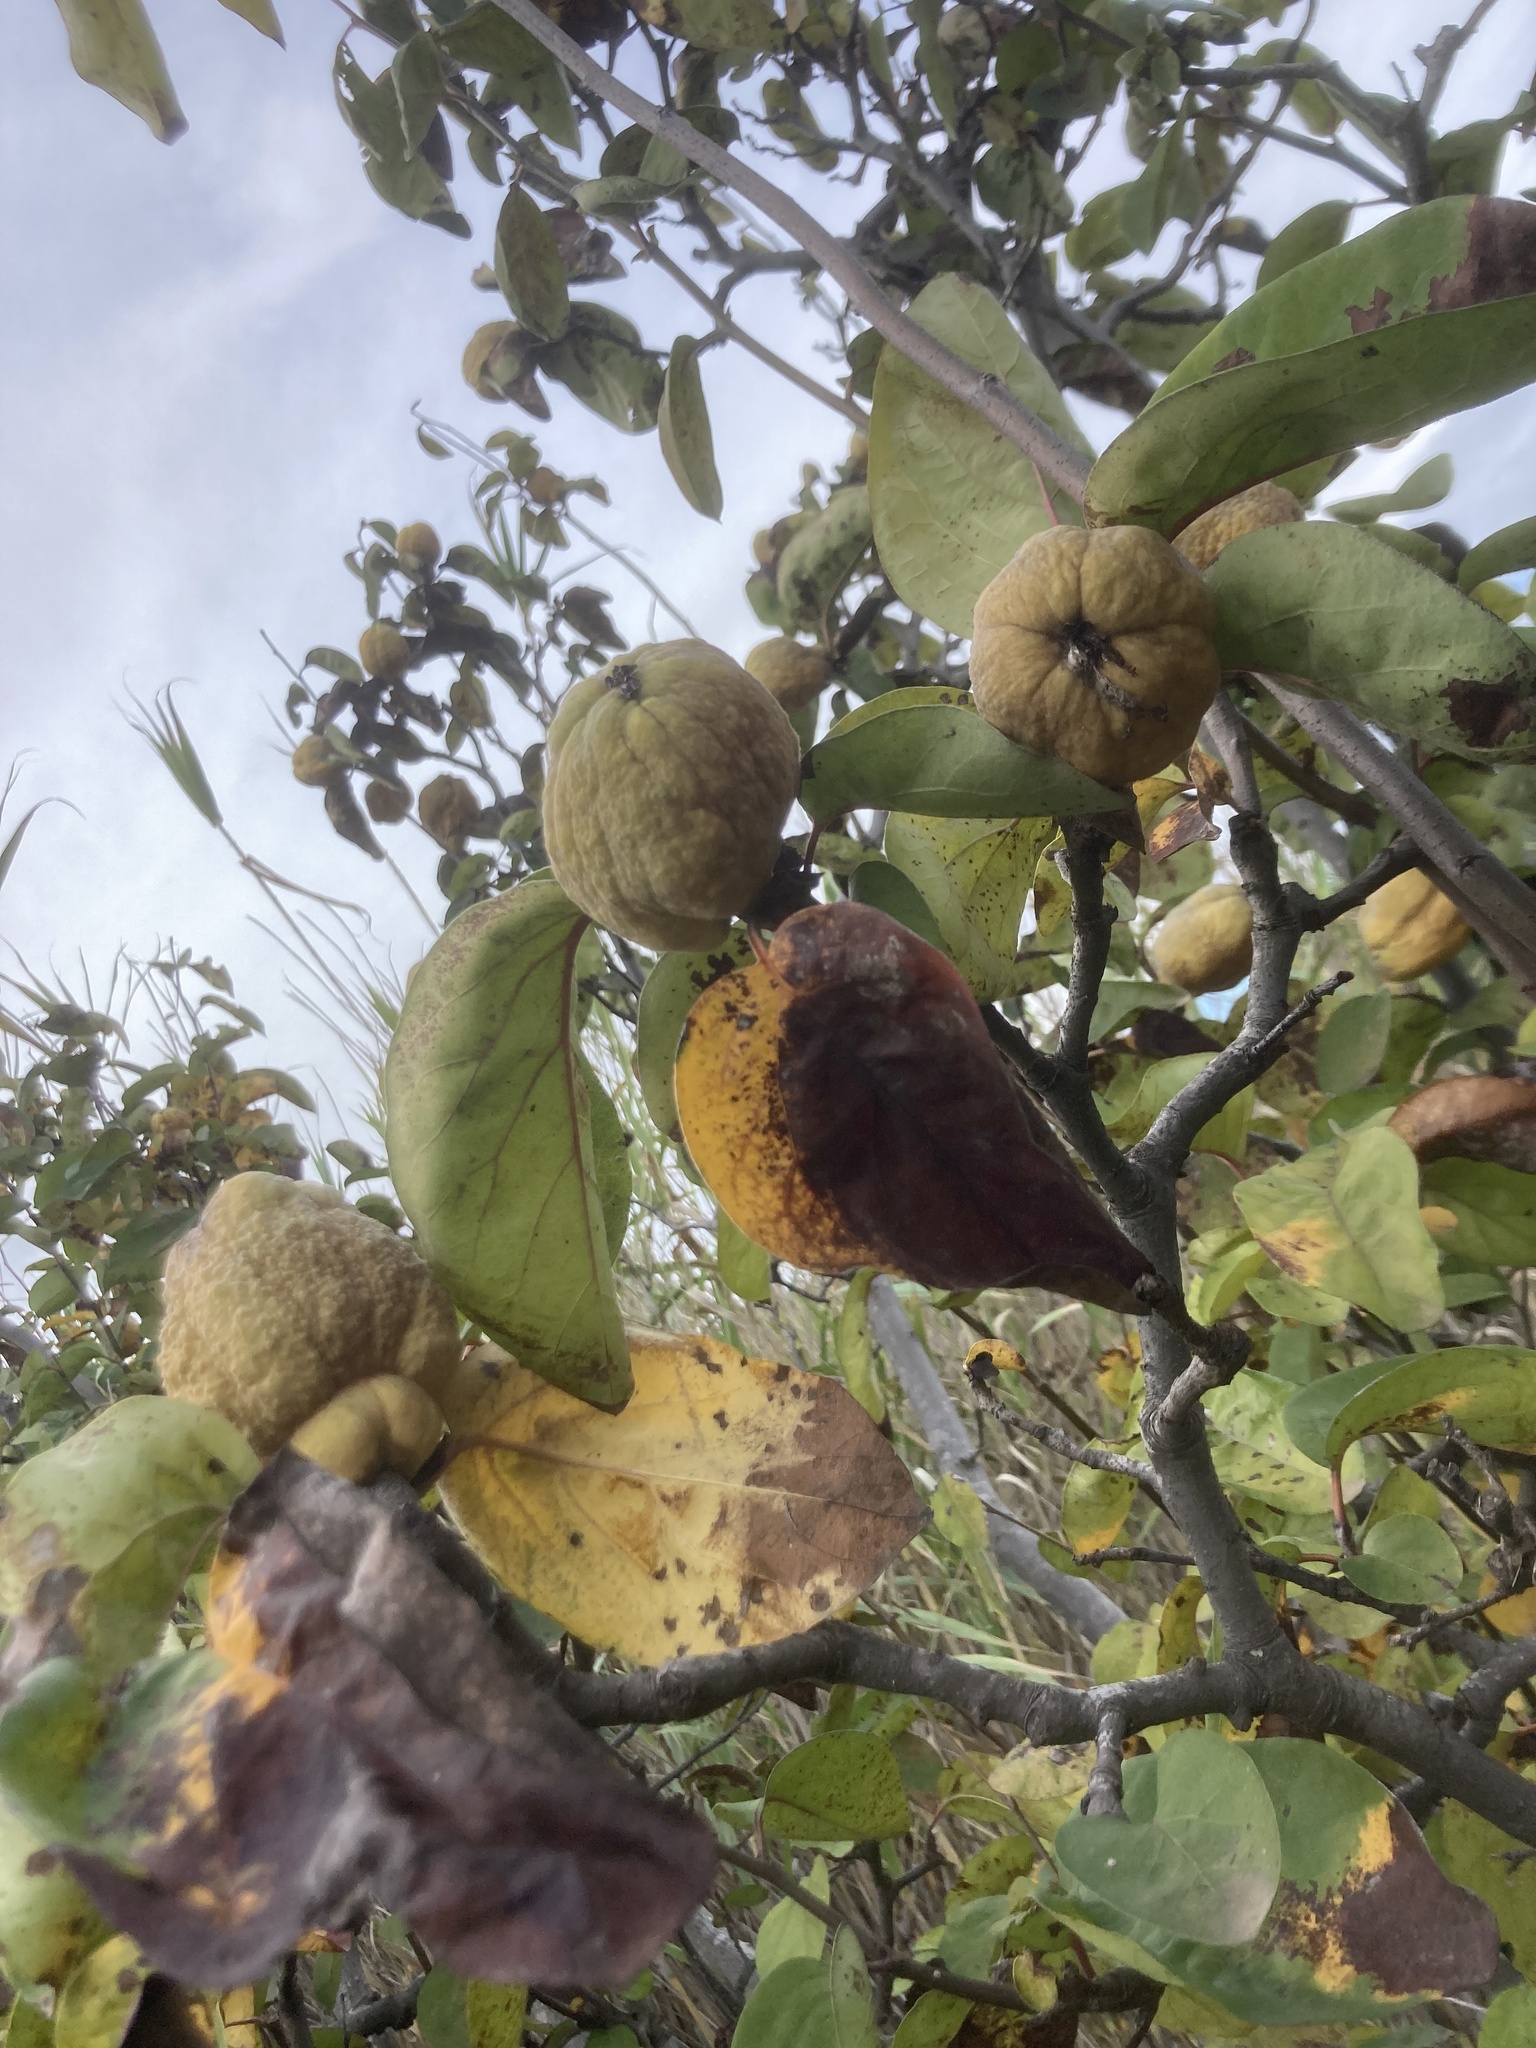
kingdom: Plantae
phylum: Tracheophyta
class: Magnoliopsida
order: Rosales
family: Rosaceae
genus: Cydonia
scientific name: Cydonia oblonga
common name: Quince
